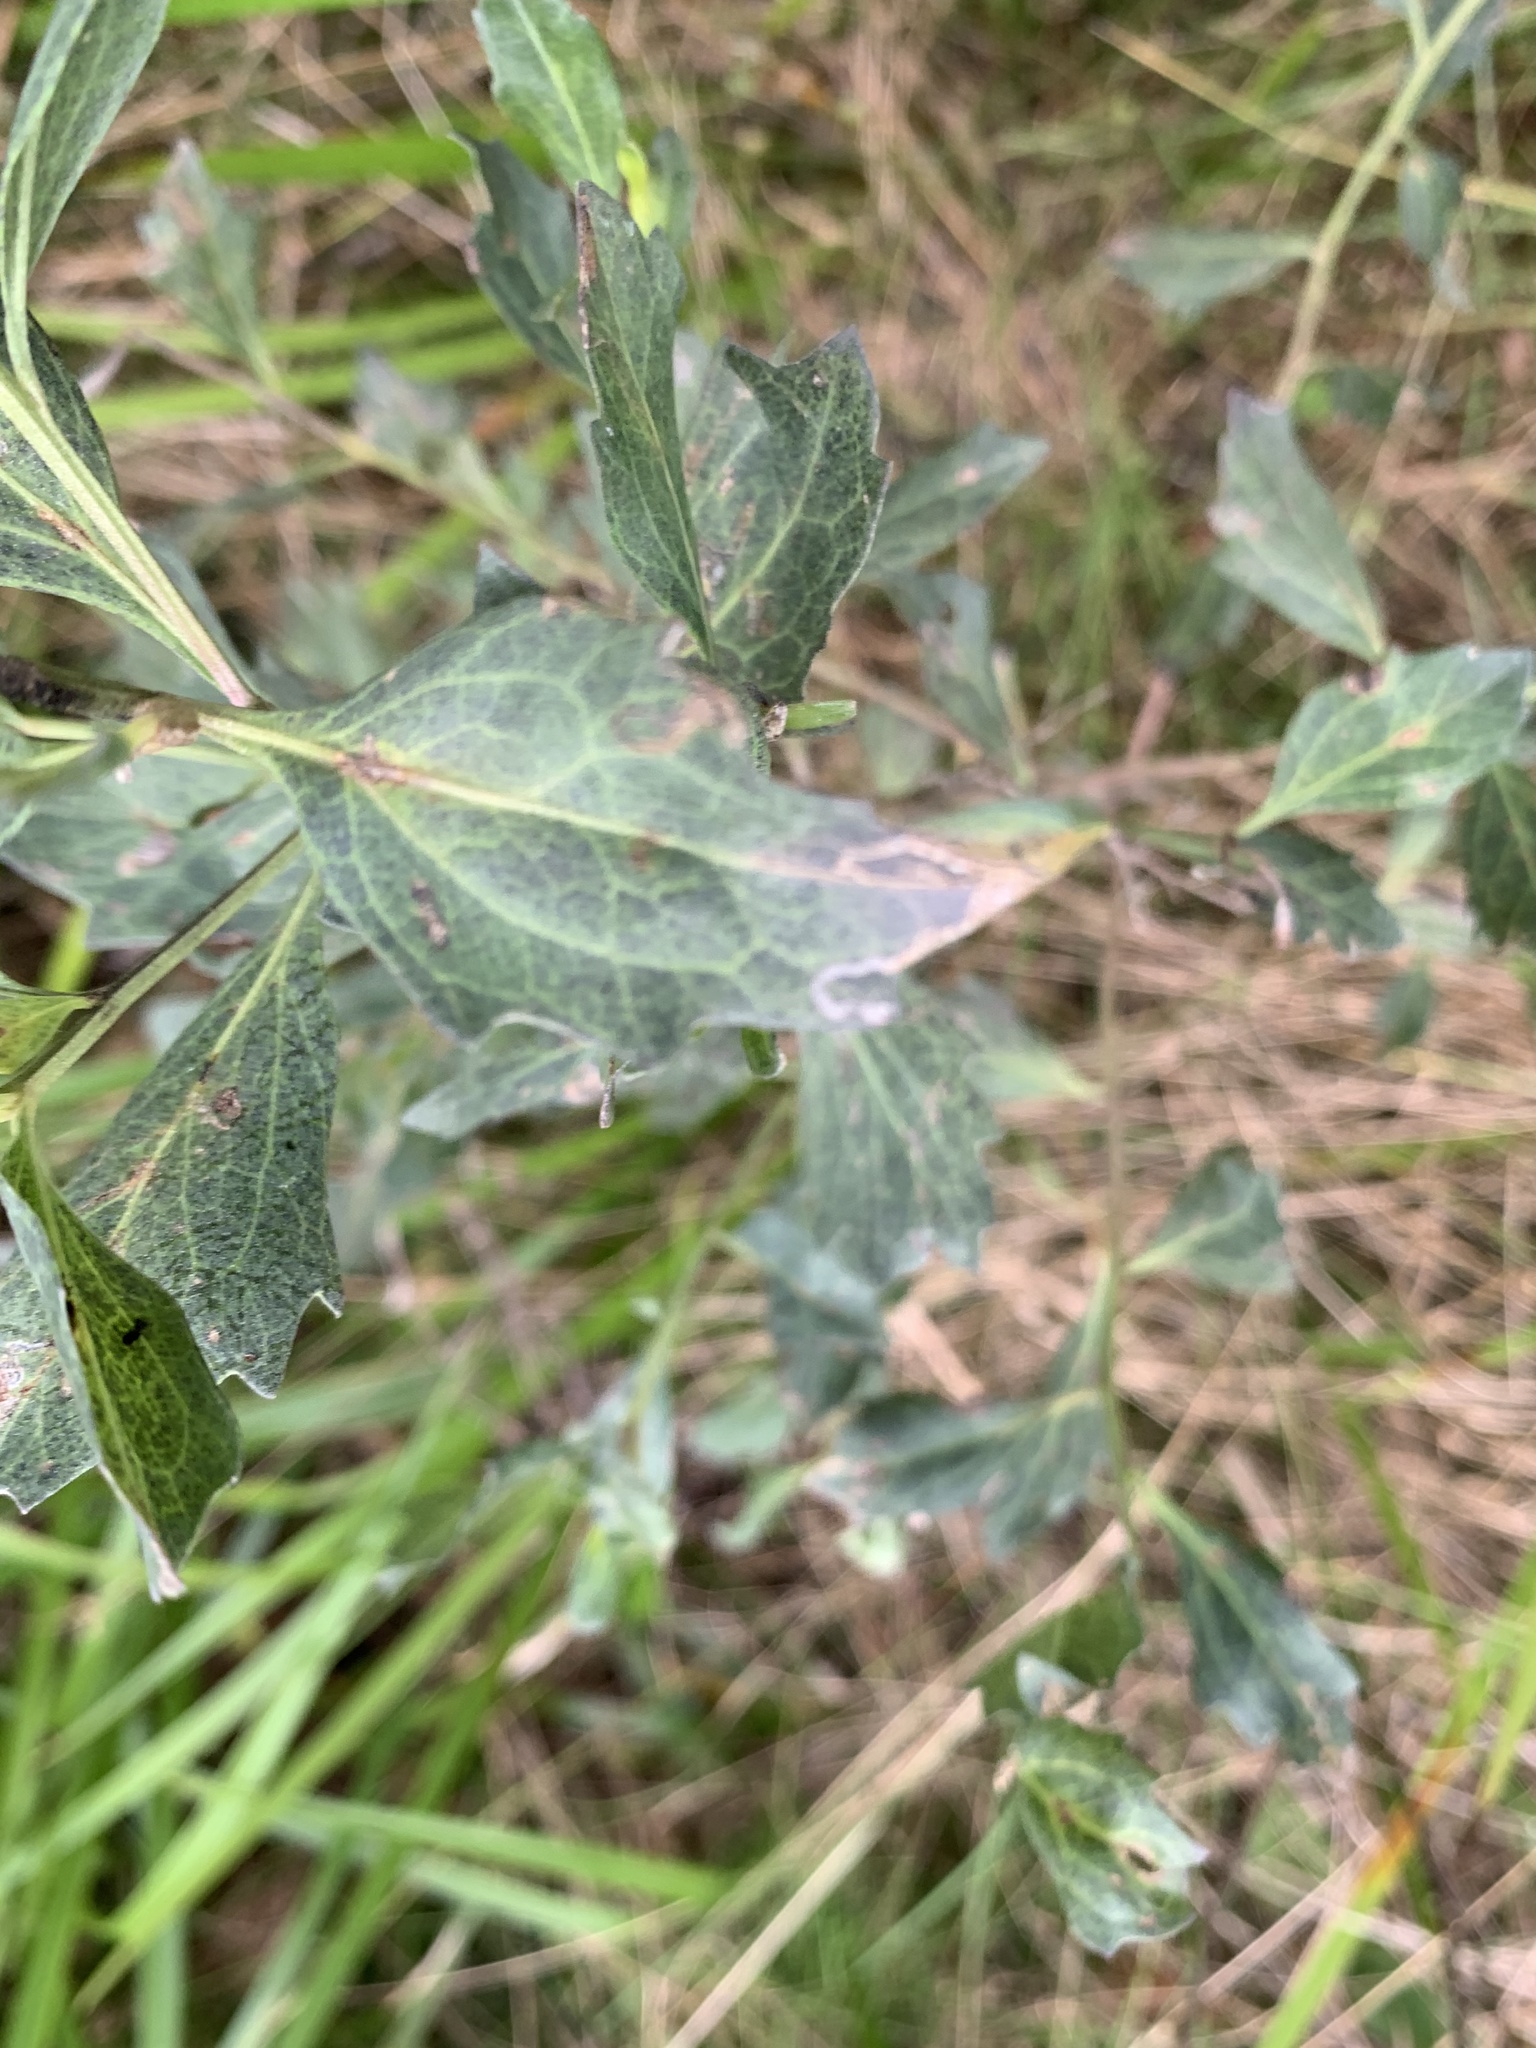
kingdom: Plantae
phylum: Tracheophyta
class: Magnoliopsida
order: Asterales
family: Asteraceae
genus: Baccharis
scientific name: Baccharis halimifolia
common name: Eastern baccharis
